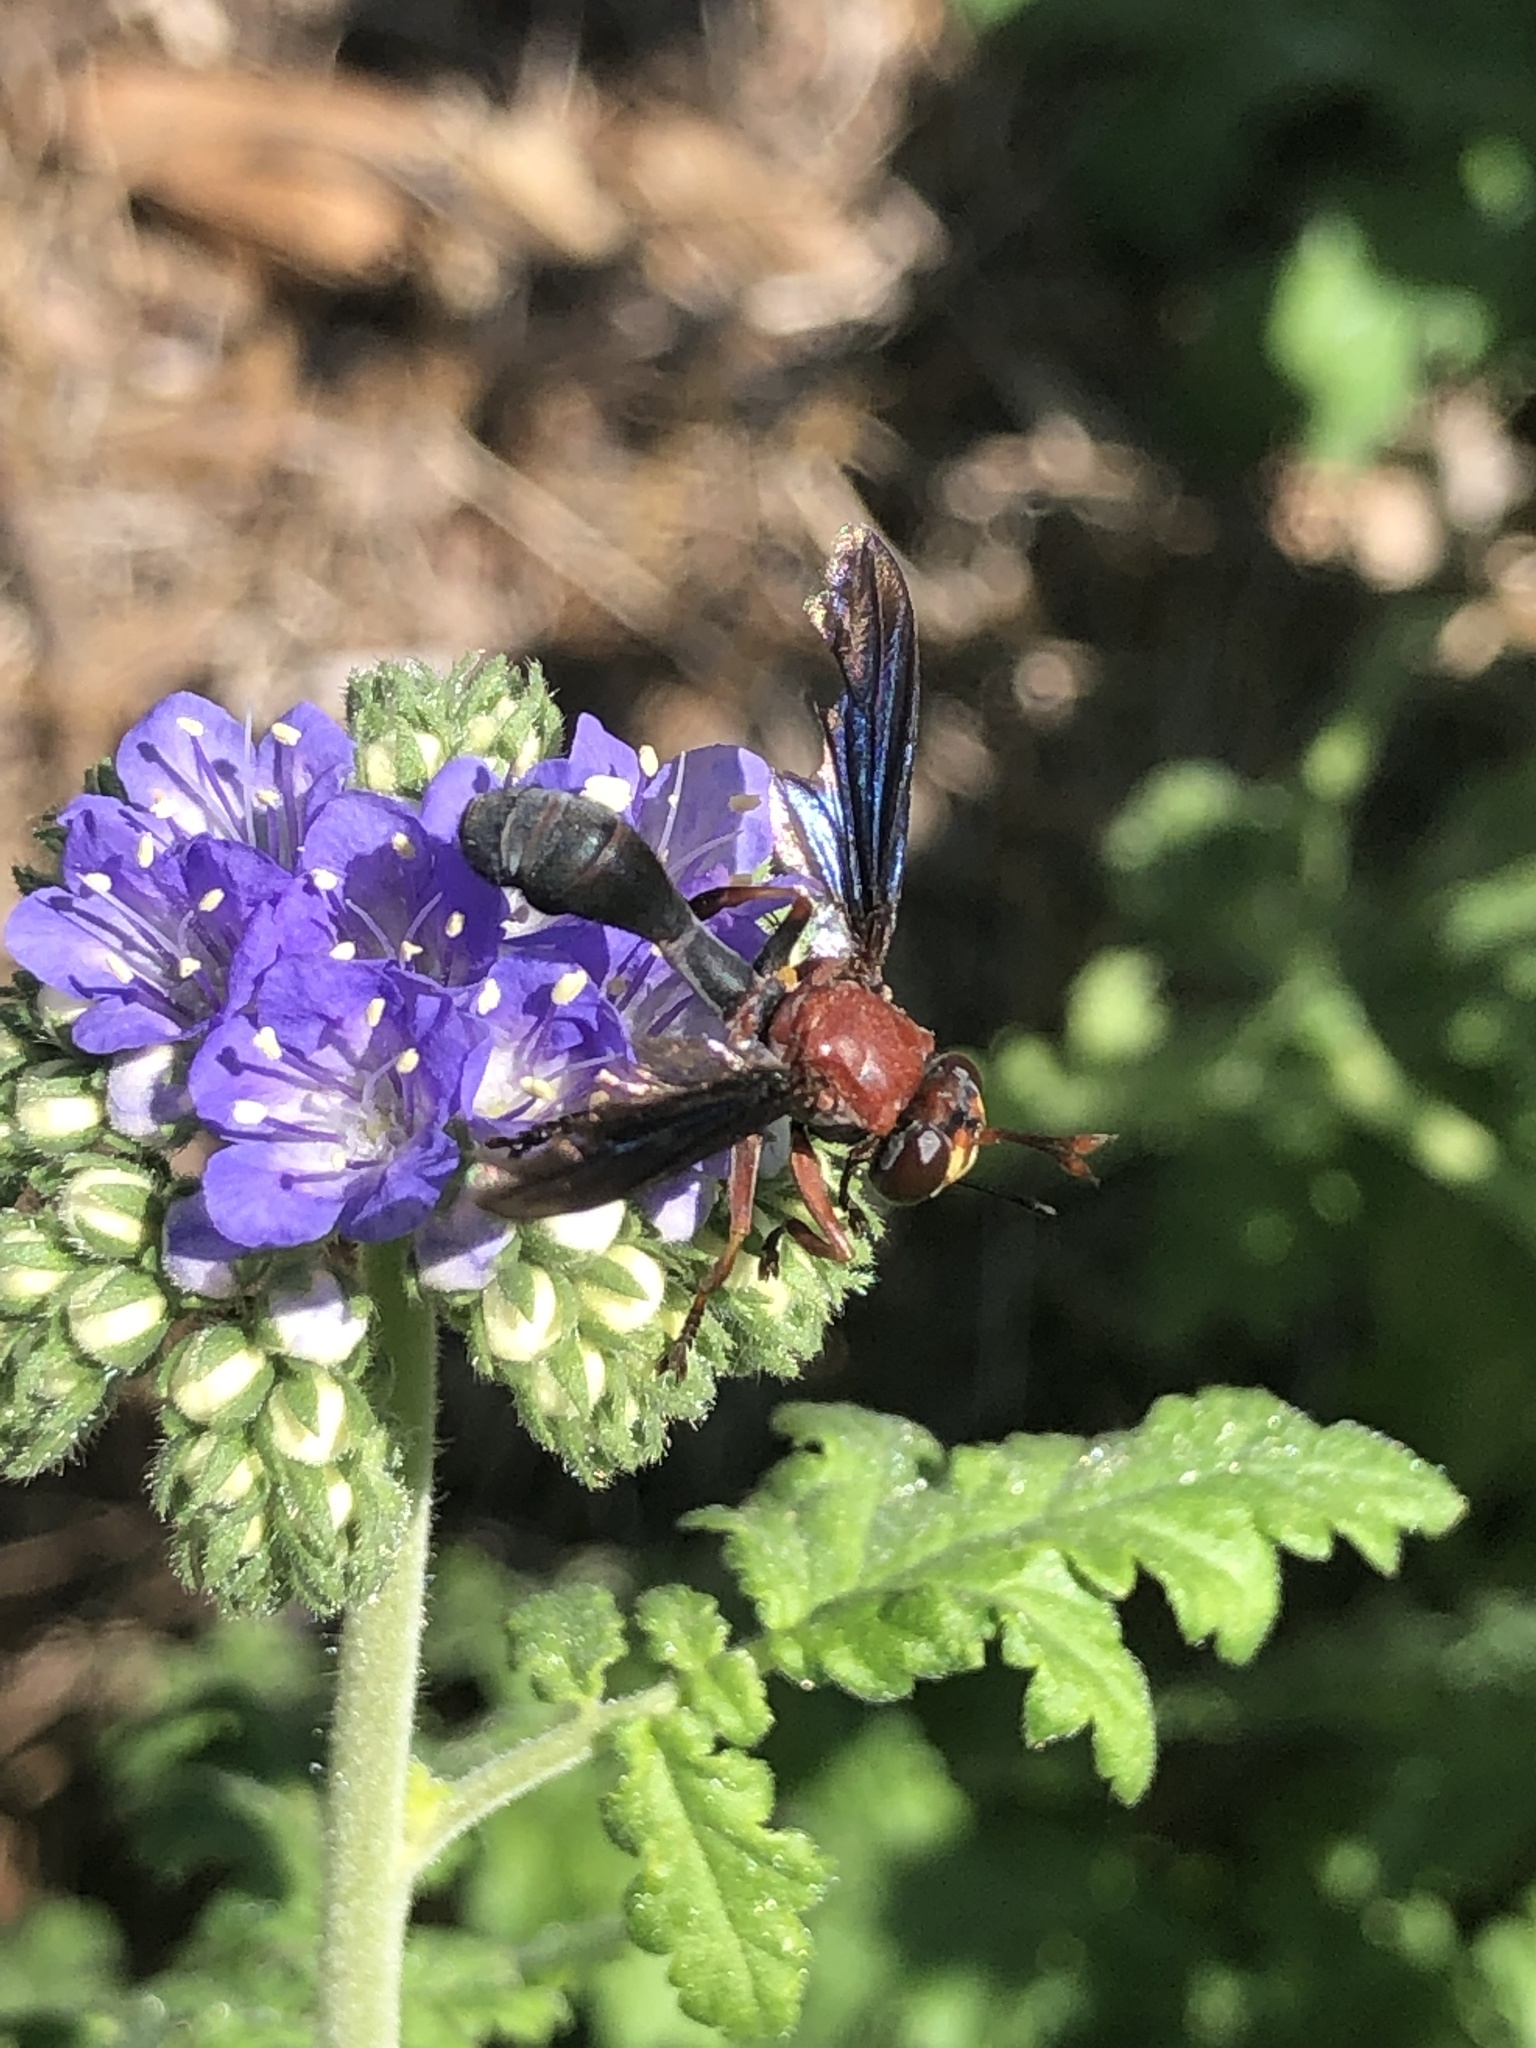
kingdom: Animalia
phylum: Arthropoda
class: Insecta
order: Diptera
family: Conopidae
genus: Physocephala
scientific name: Physocephala floridana
